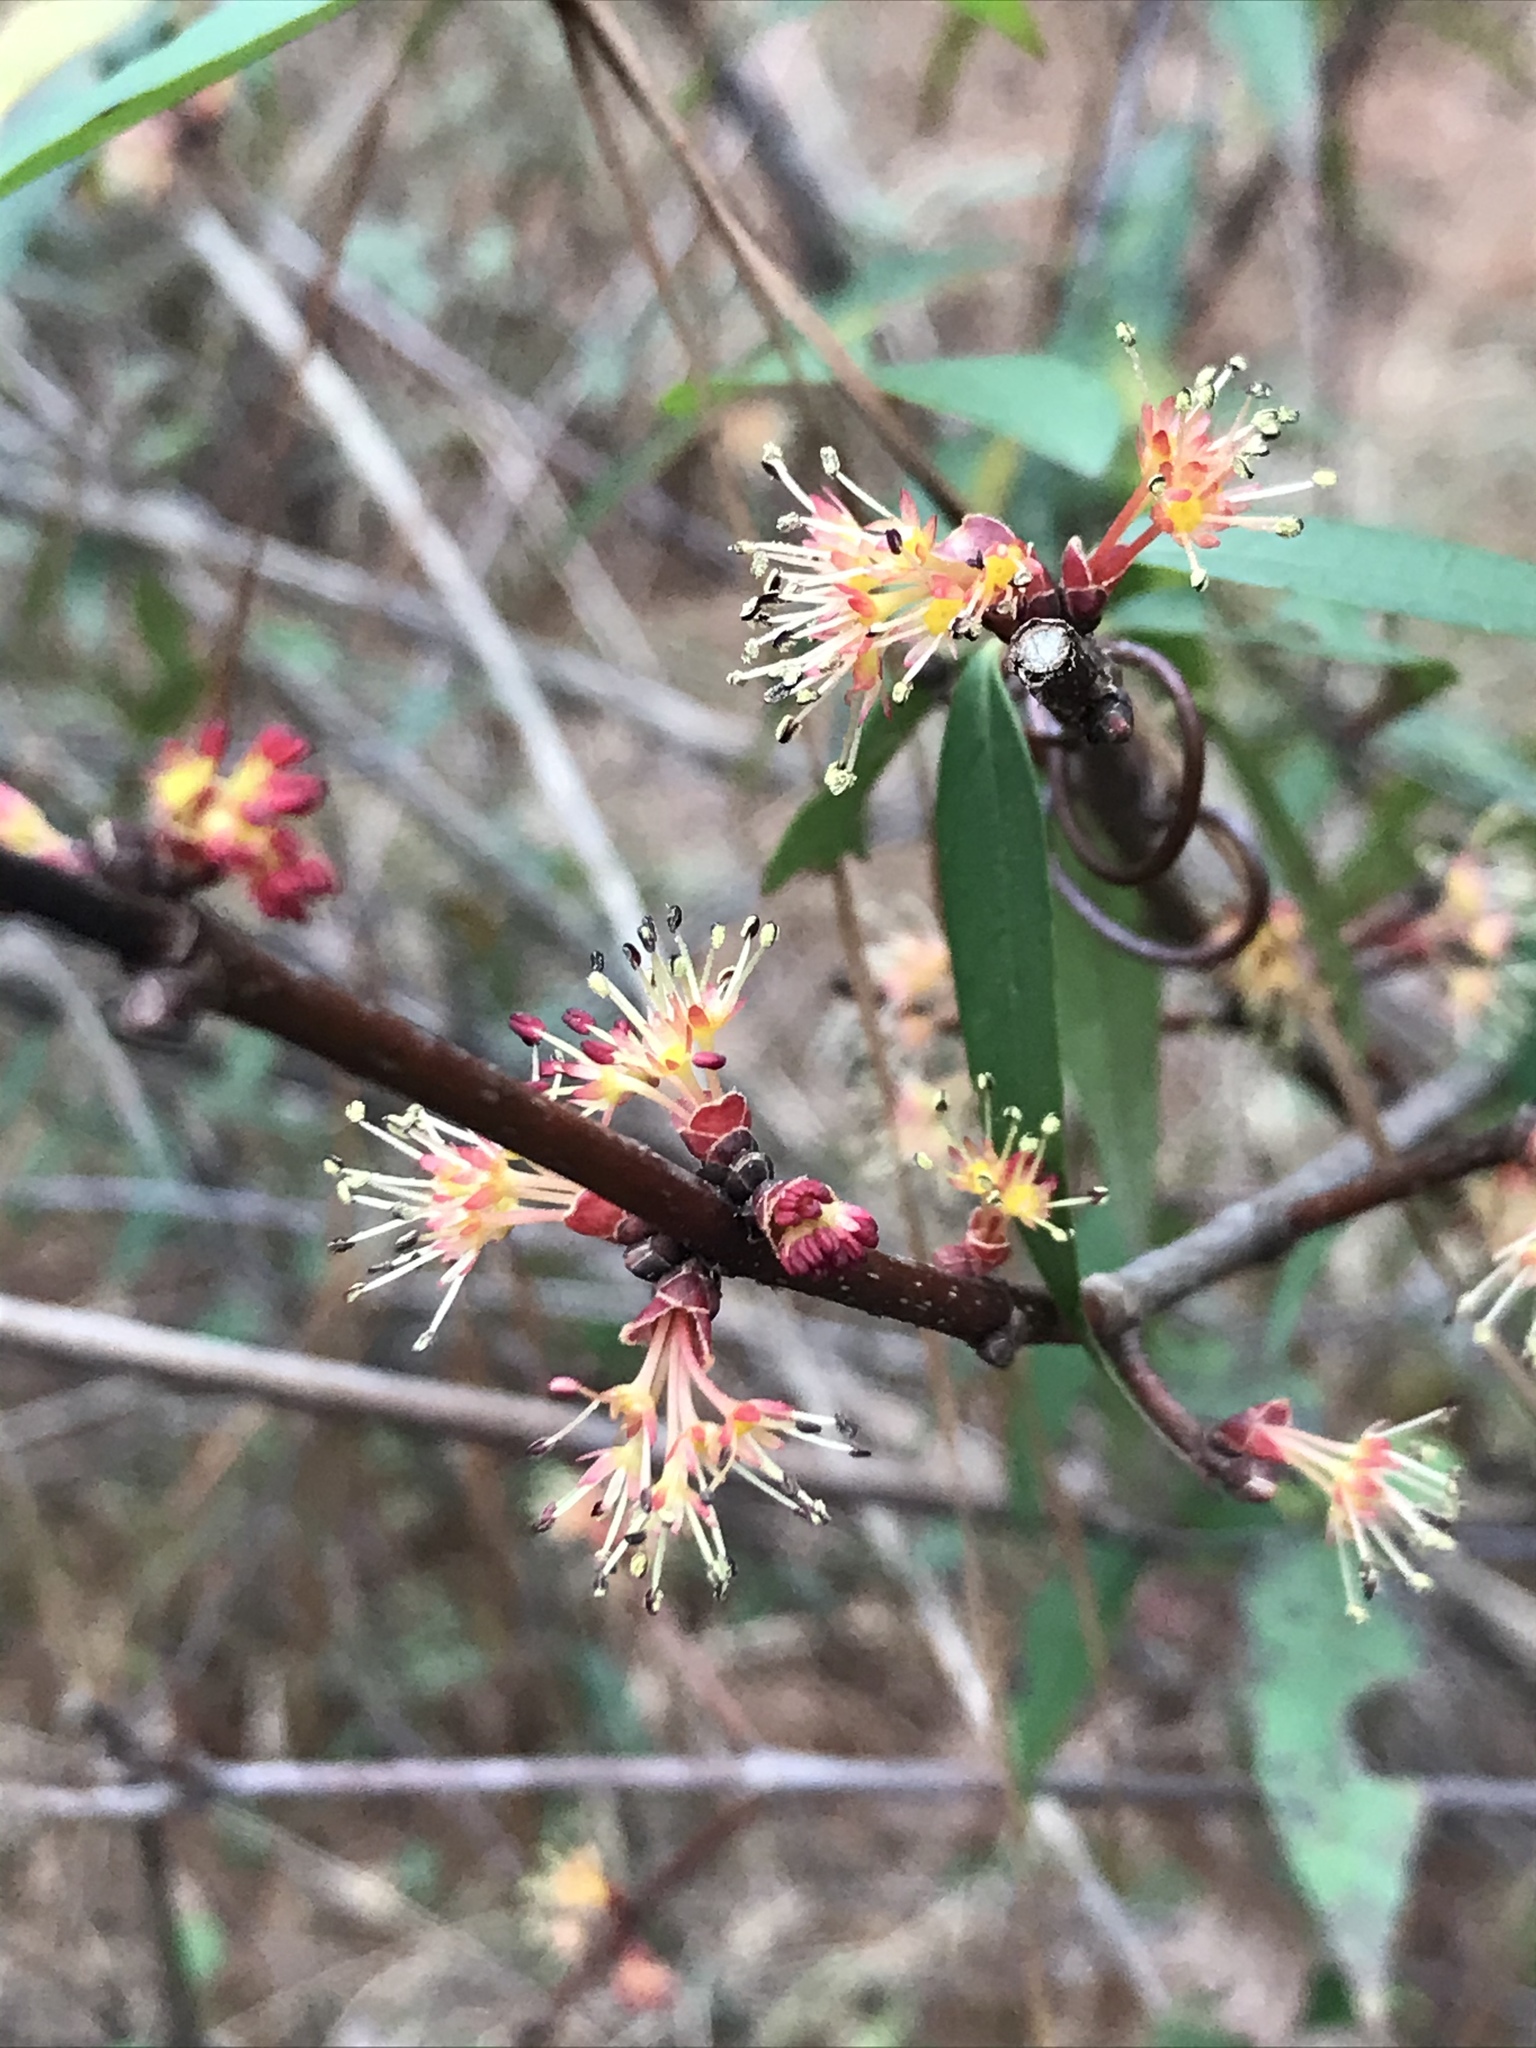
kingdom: Plantae
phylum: Tracheophyta
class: Magnoliopsida
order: Sapindales
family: Sapindaceae
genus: Acer
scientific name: Acer rubrum
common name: Red maple
